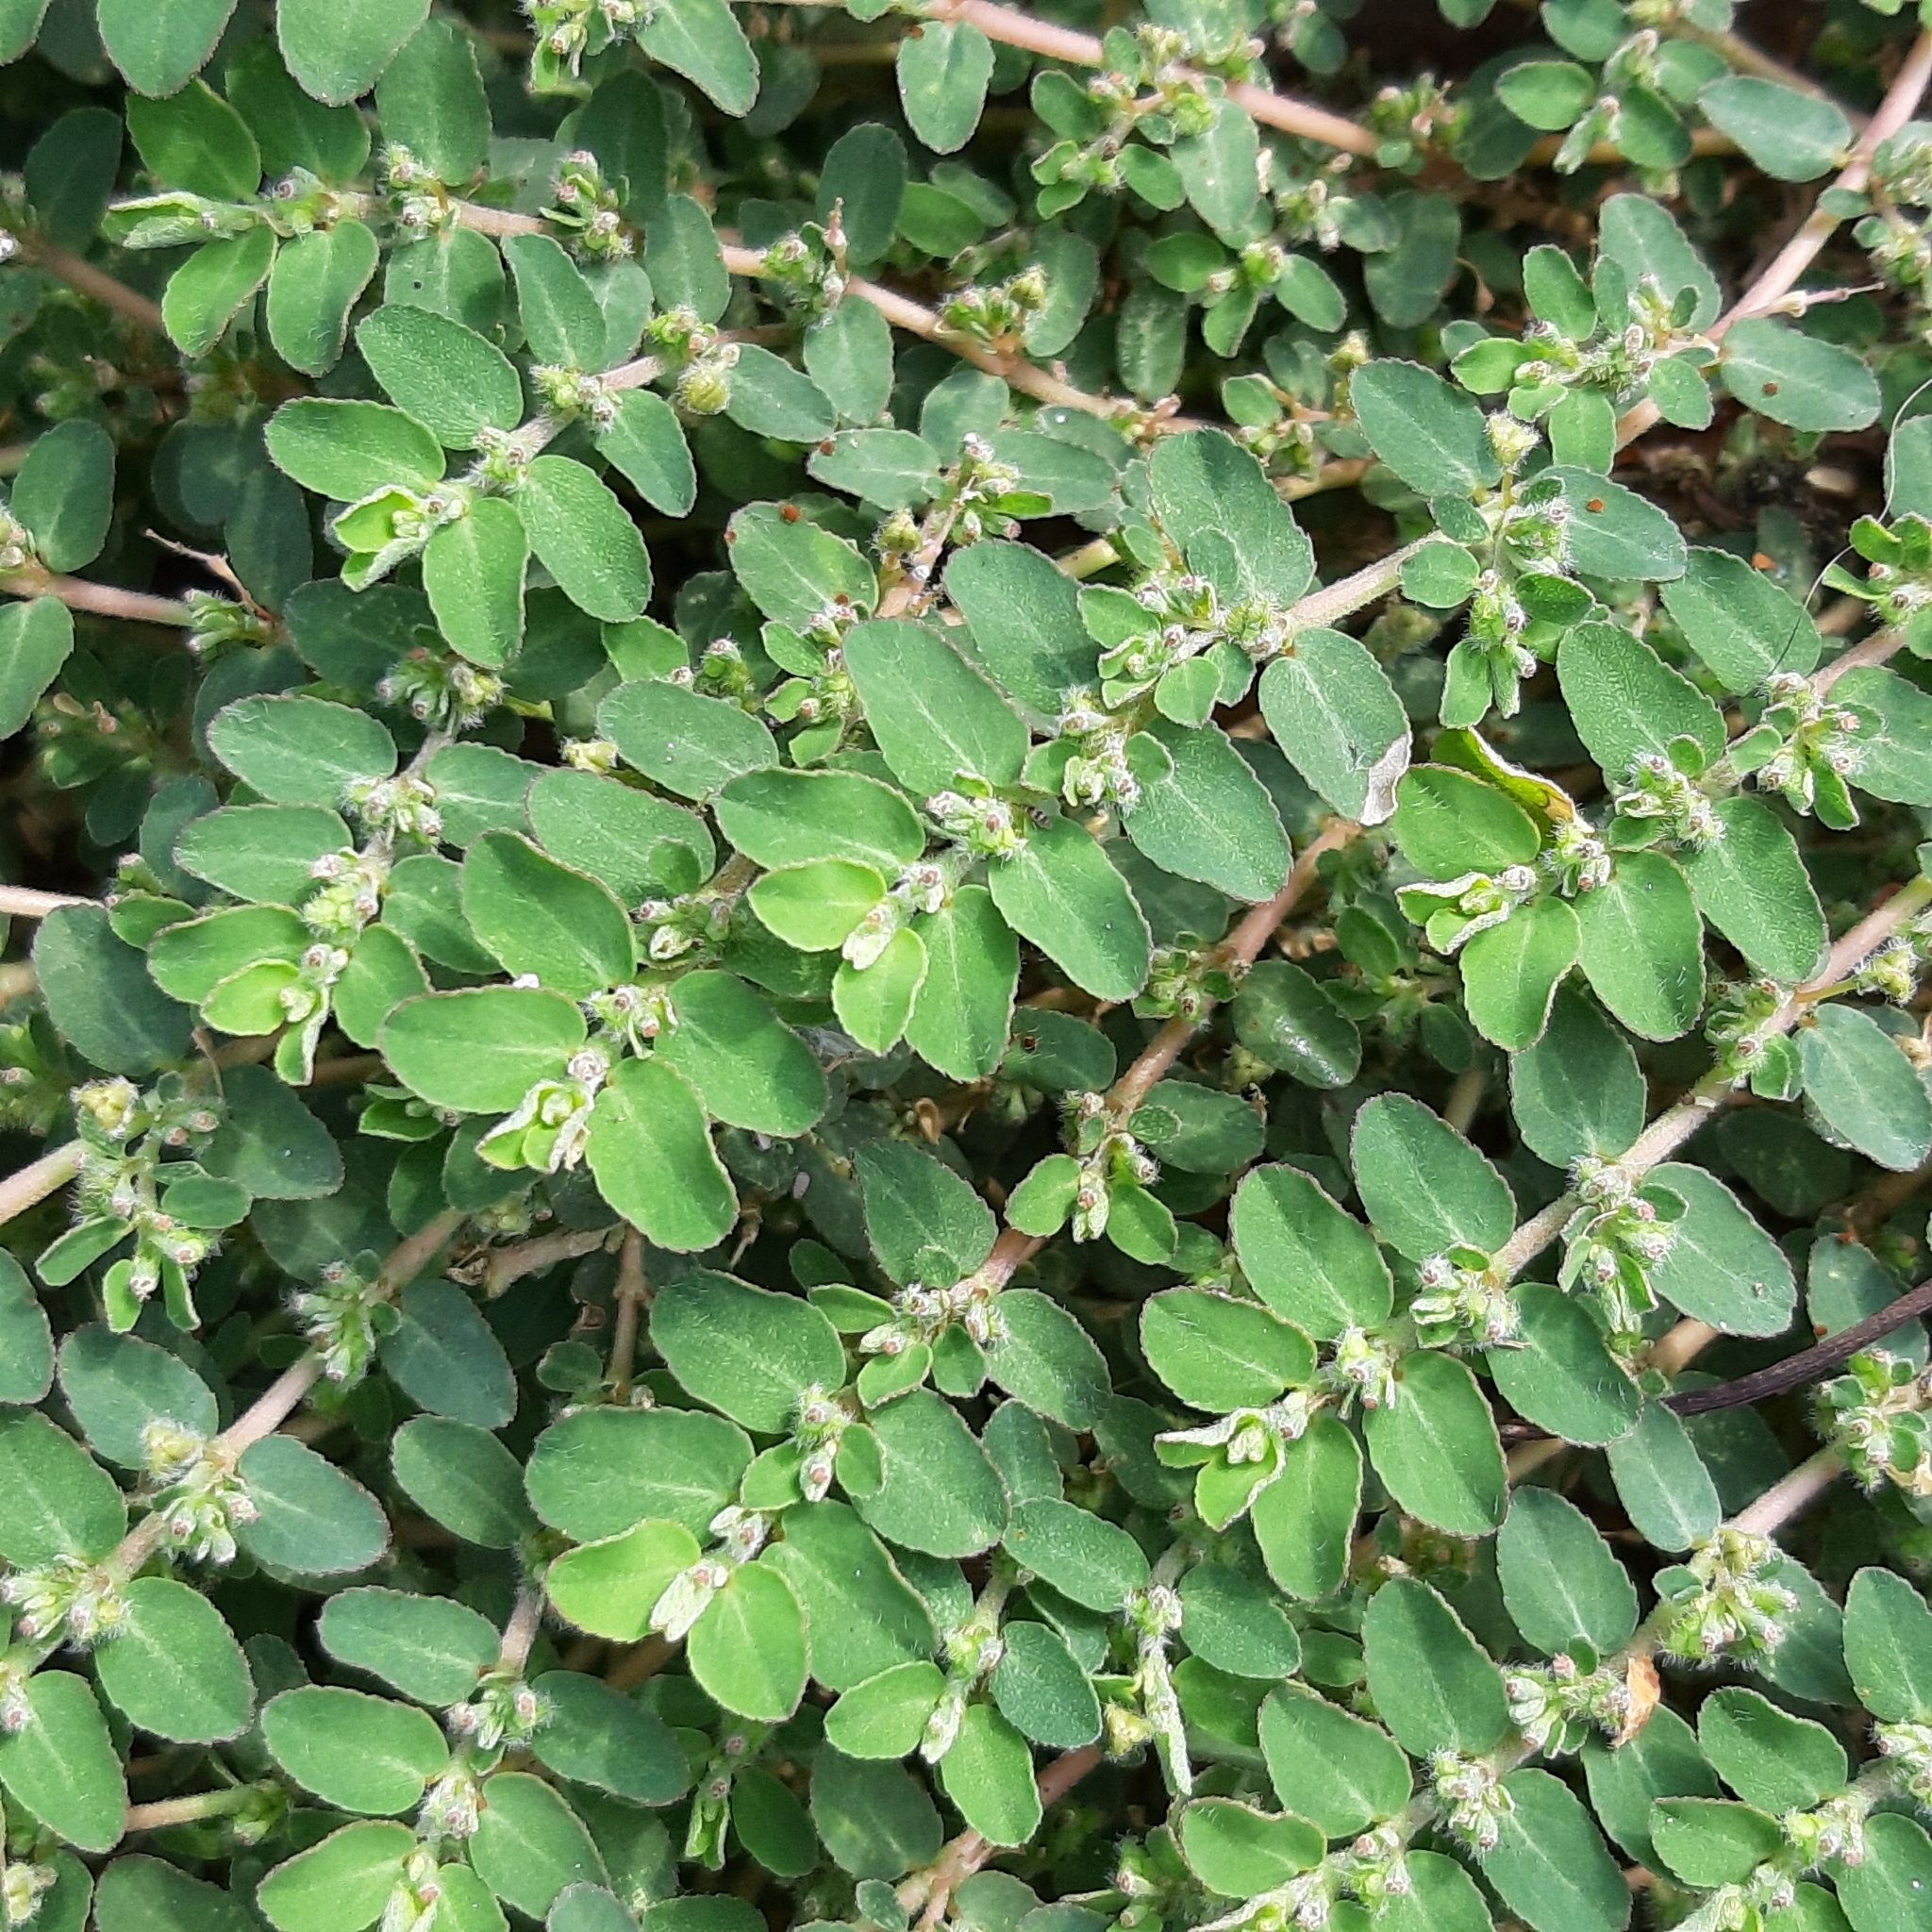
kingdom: Plantae
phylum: Tracheophyta
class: Magnoliopsida
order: Malpighiales
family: Euphorbiaceae
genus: Euphorbia
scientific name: Euphorbia prostrata
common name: Prostrate sandmat
